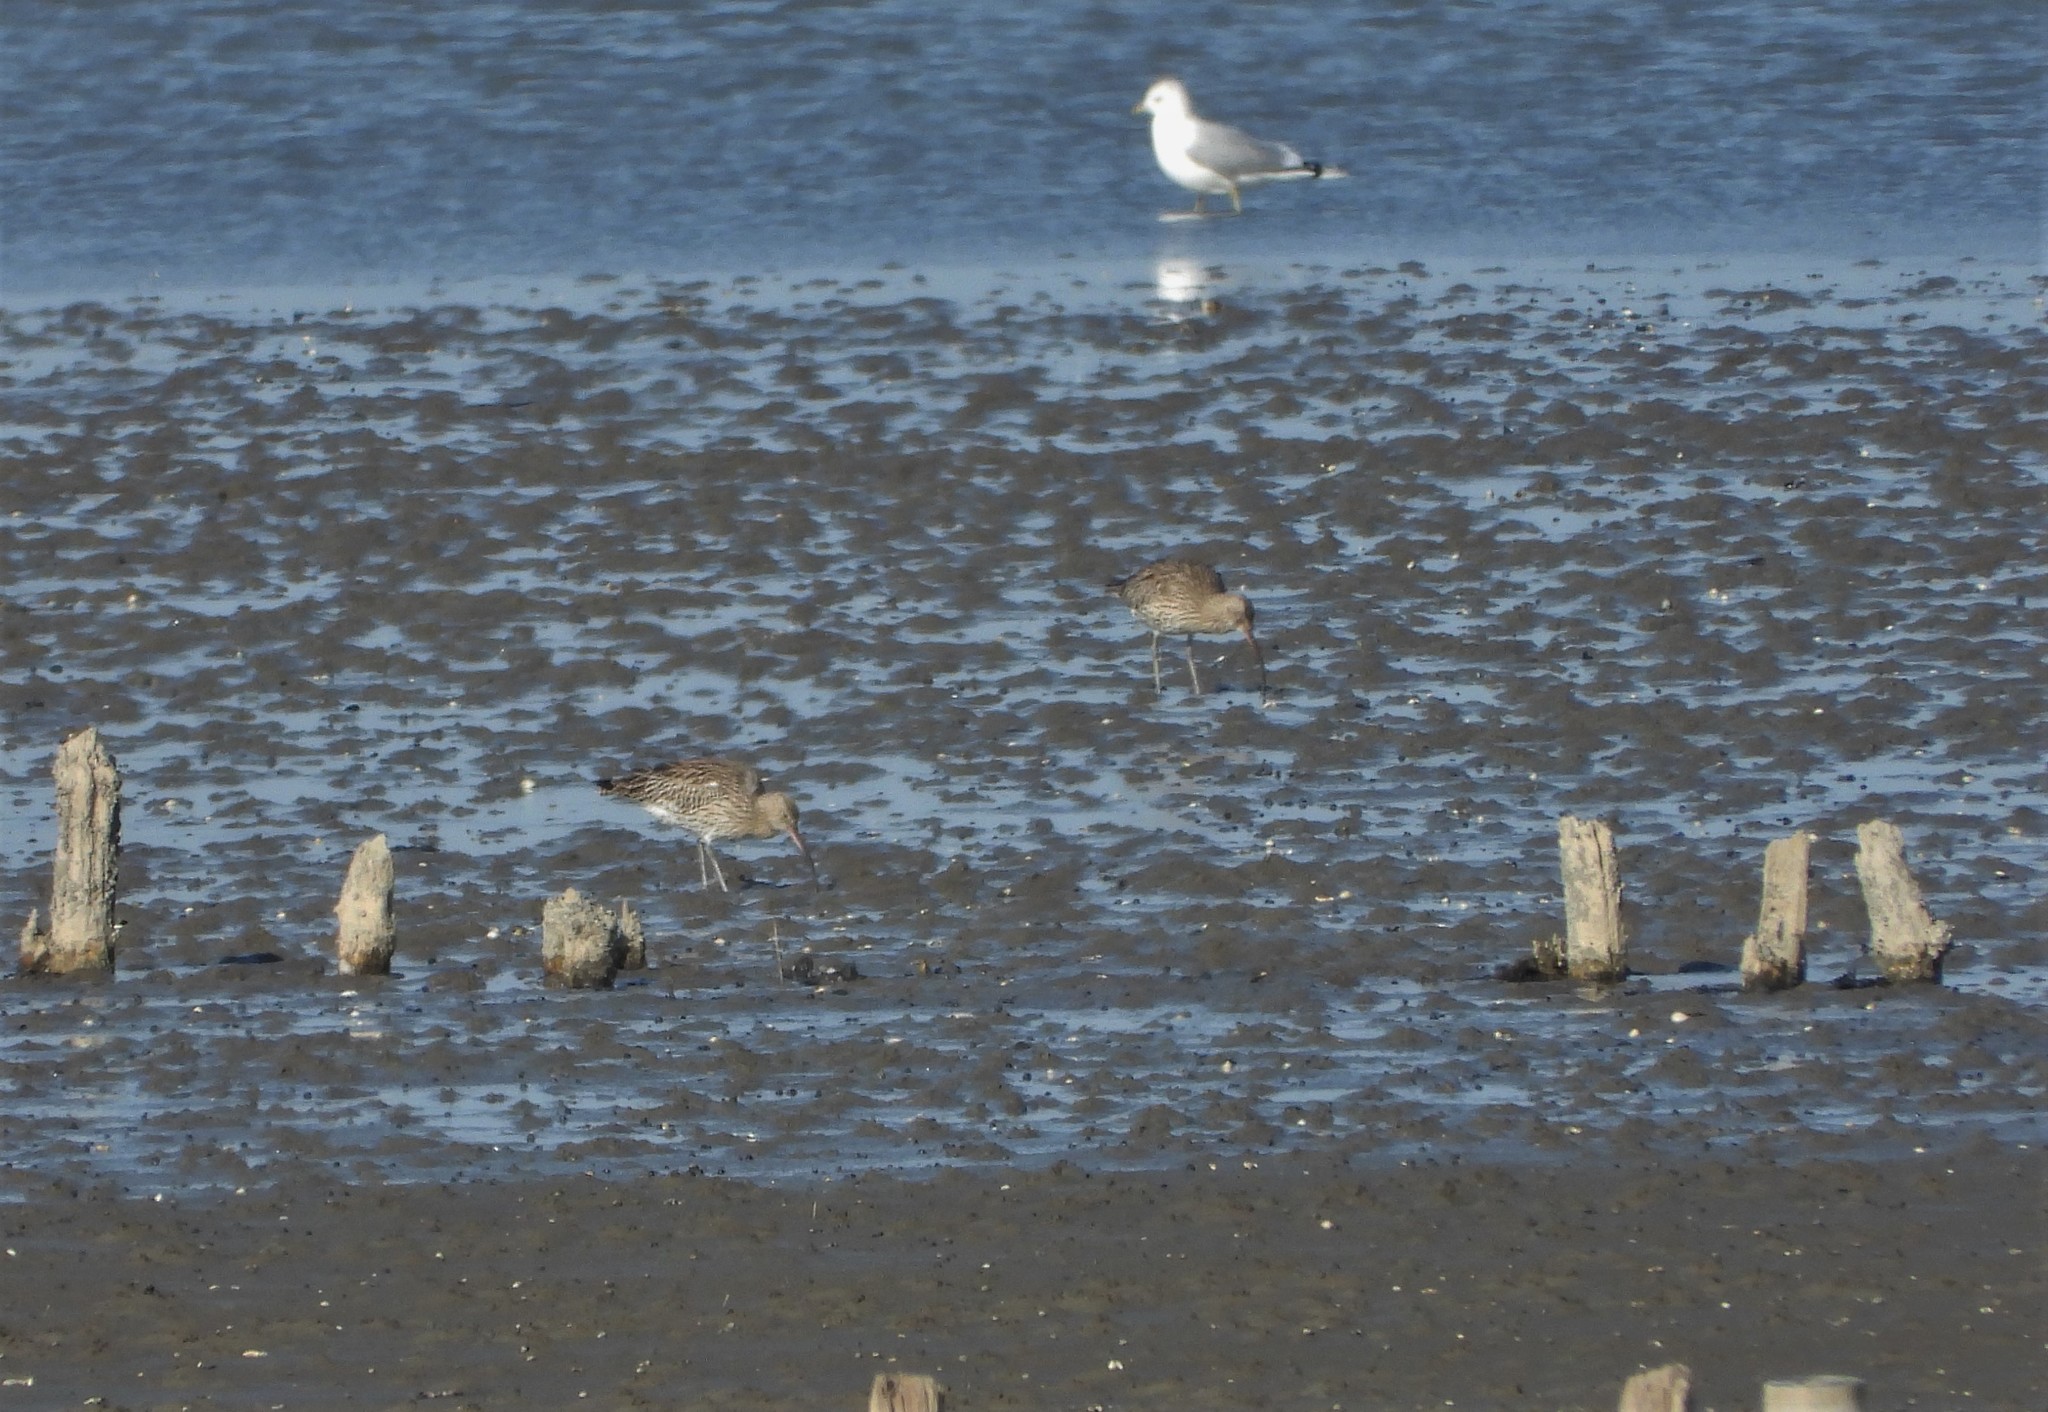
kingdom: Animalia
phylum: Chordata
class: Aves
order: Charadriiformes
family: Scolopacidae
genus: Numenius
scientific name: Numenius arquata
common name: Eurasian curlew
